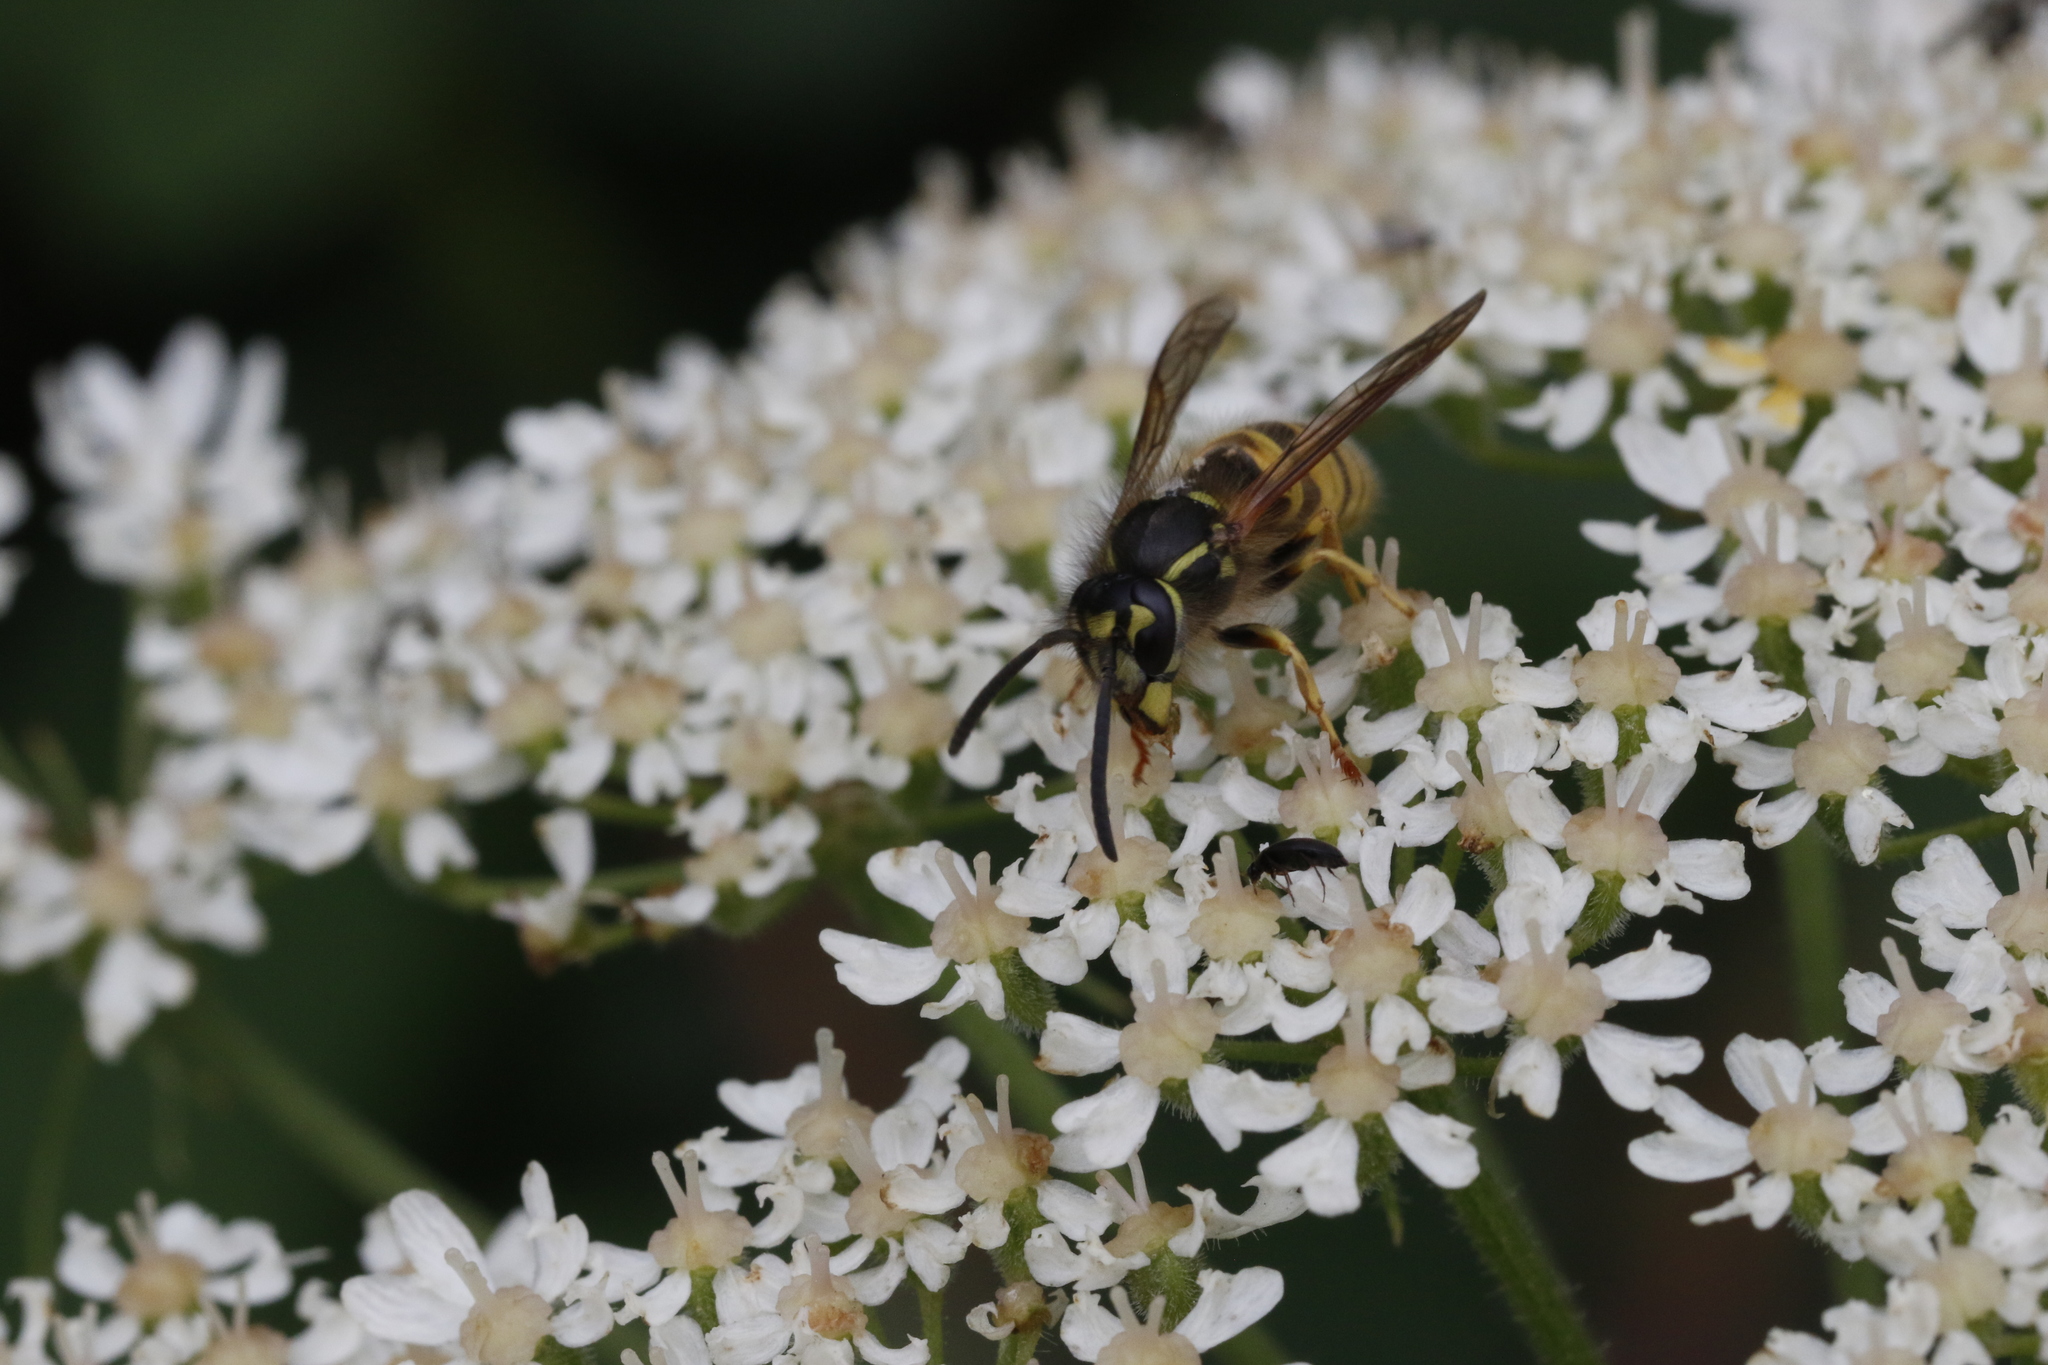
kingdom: Animalia
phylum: Arthropoda
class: Insecta
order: Hymenoptera
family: Vespidae
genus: Vespula
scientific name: Vespula vulgaris
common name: Common wasp
